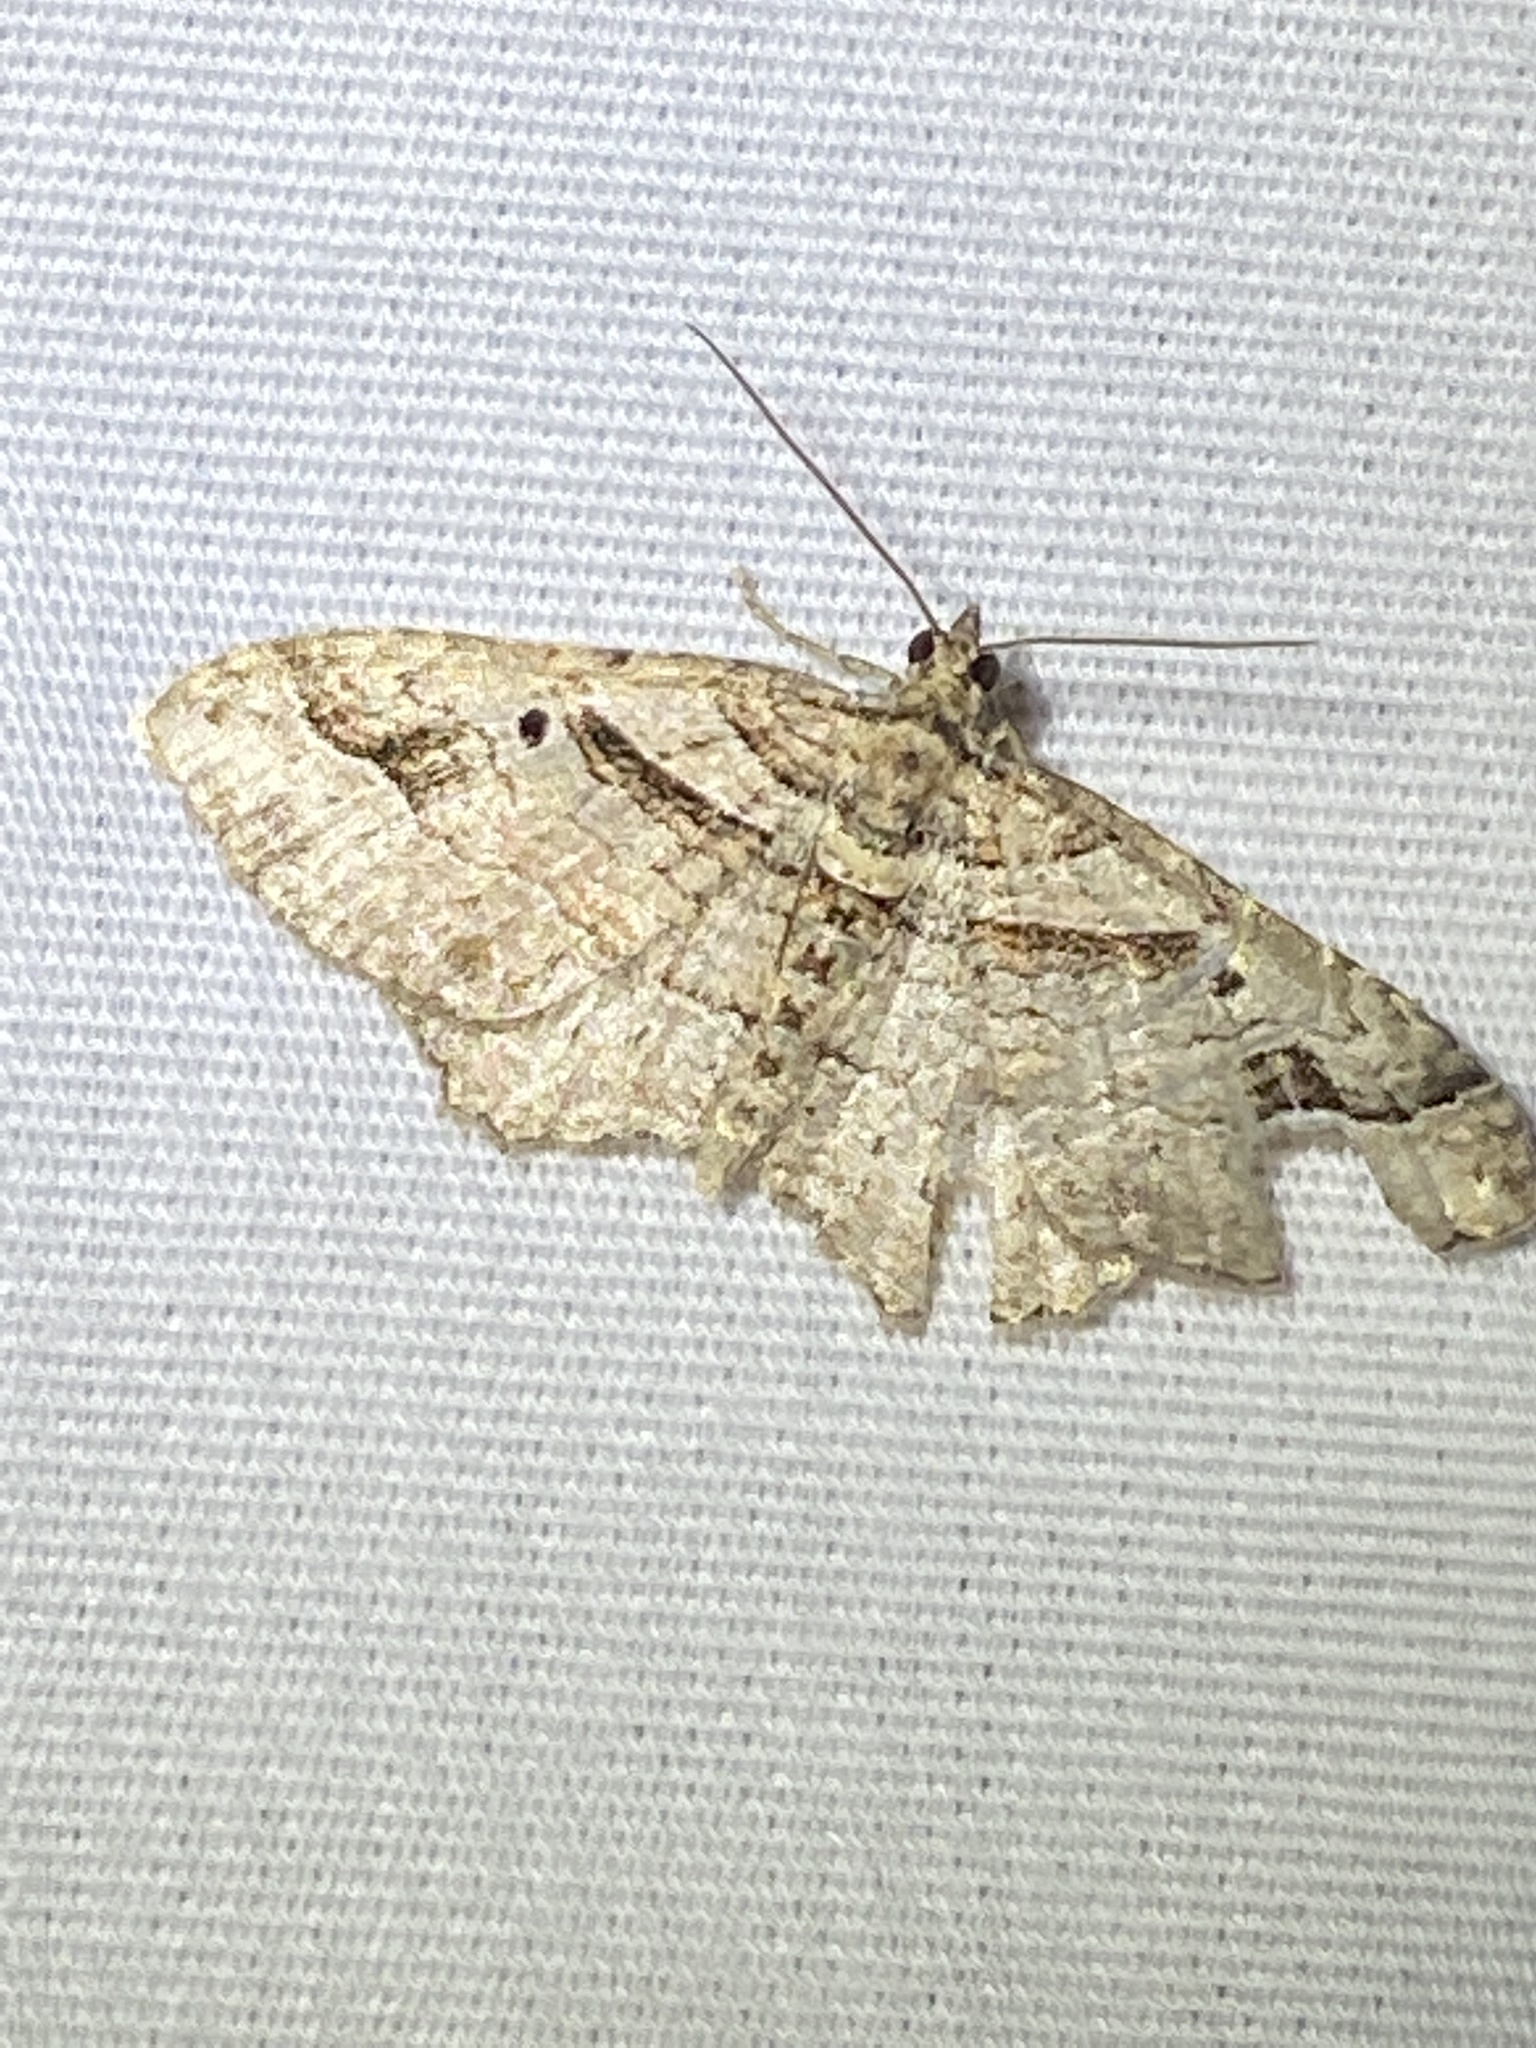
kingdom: Animalia
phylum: Arthropoda
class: Insecta
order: Lepidoptera
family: Geometridae
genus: Costaconvexa
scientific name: Costaconvexa centrostrigaria
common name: Bent-line carpet
